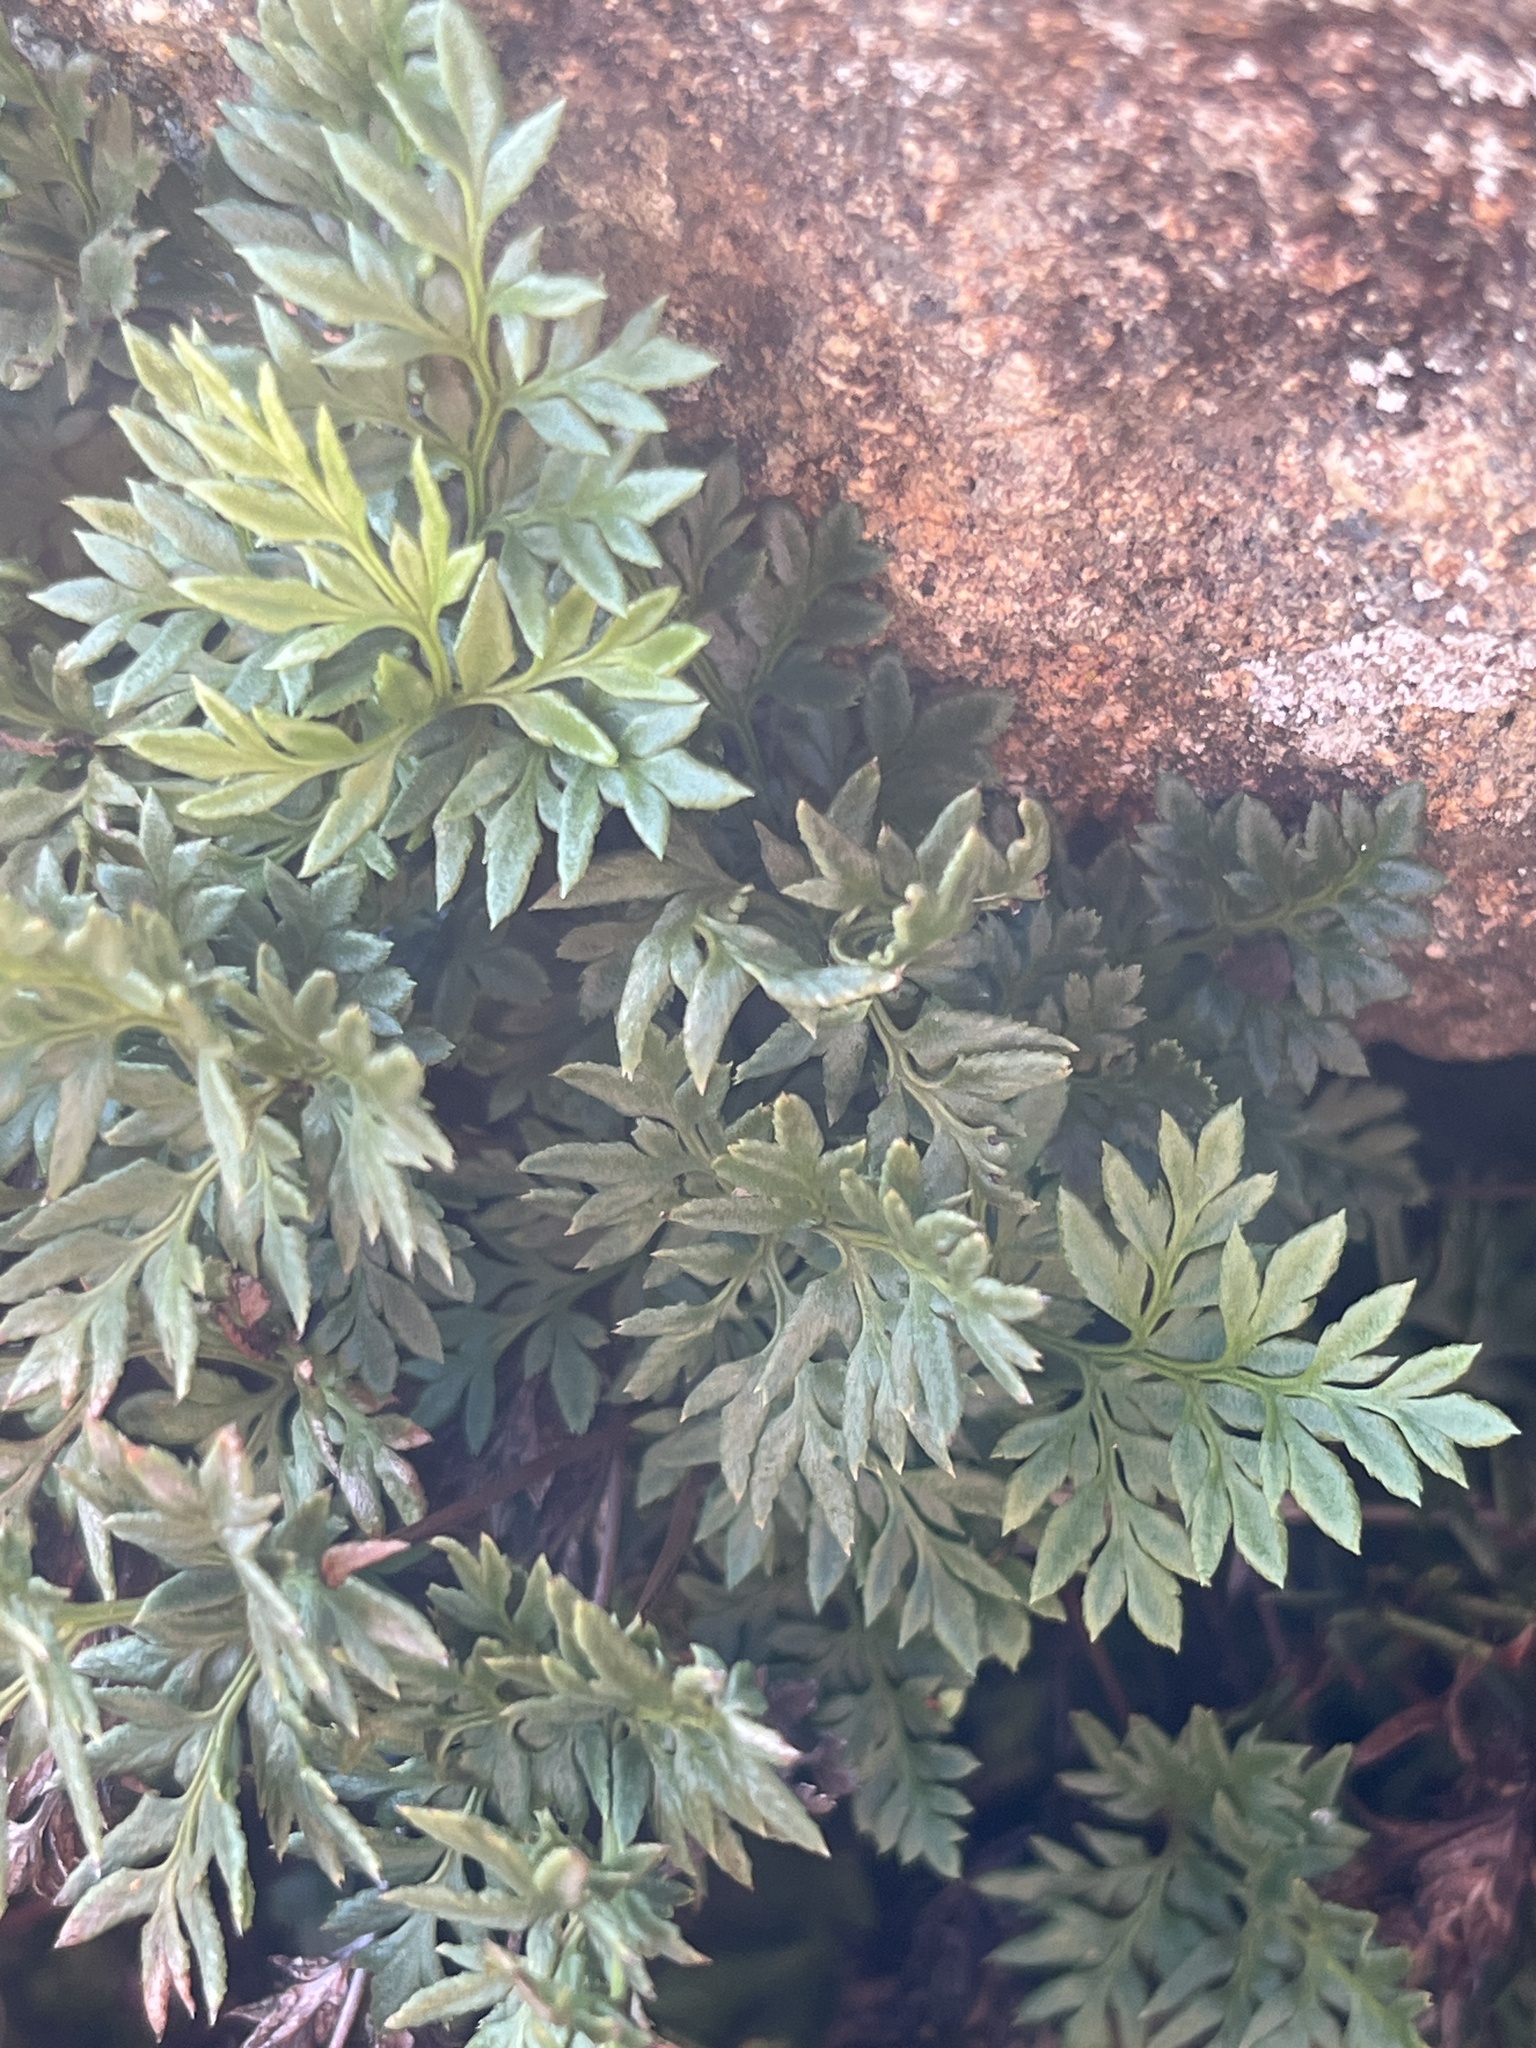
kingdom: Plantae
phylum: Tracheophyta
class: Polypodiopsida
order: Polypodiales
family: Pteridaceae
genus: Aspidotis
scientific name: Aspidotis densa
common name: Indian's dream
